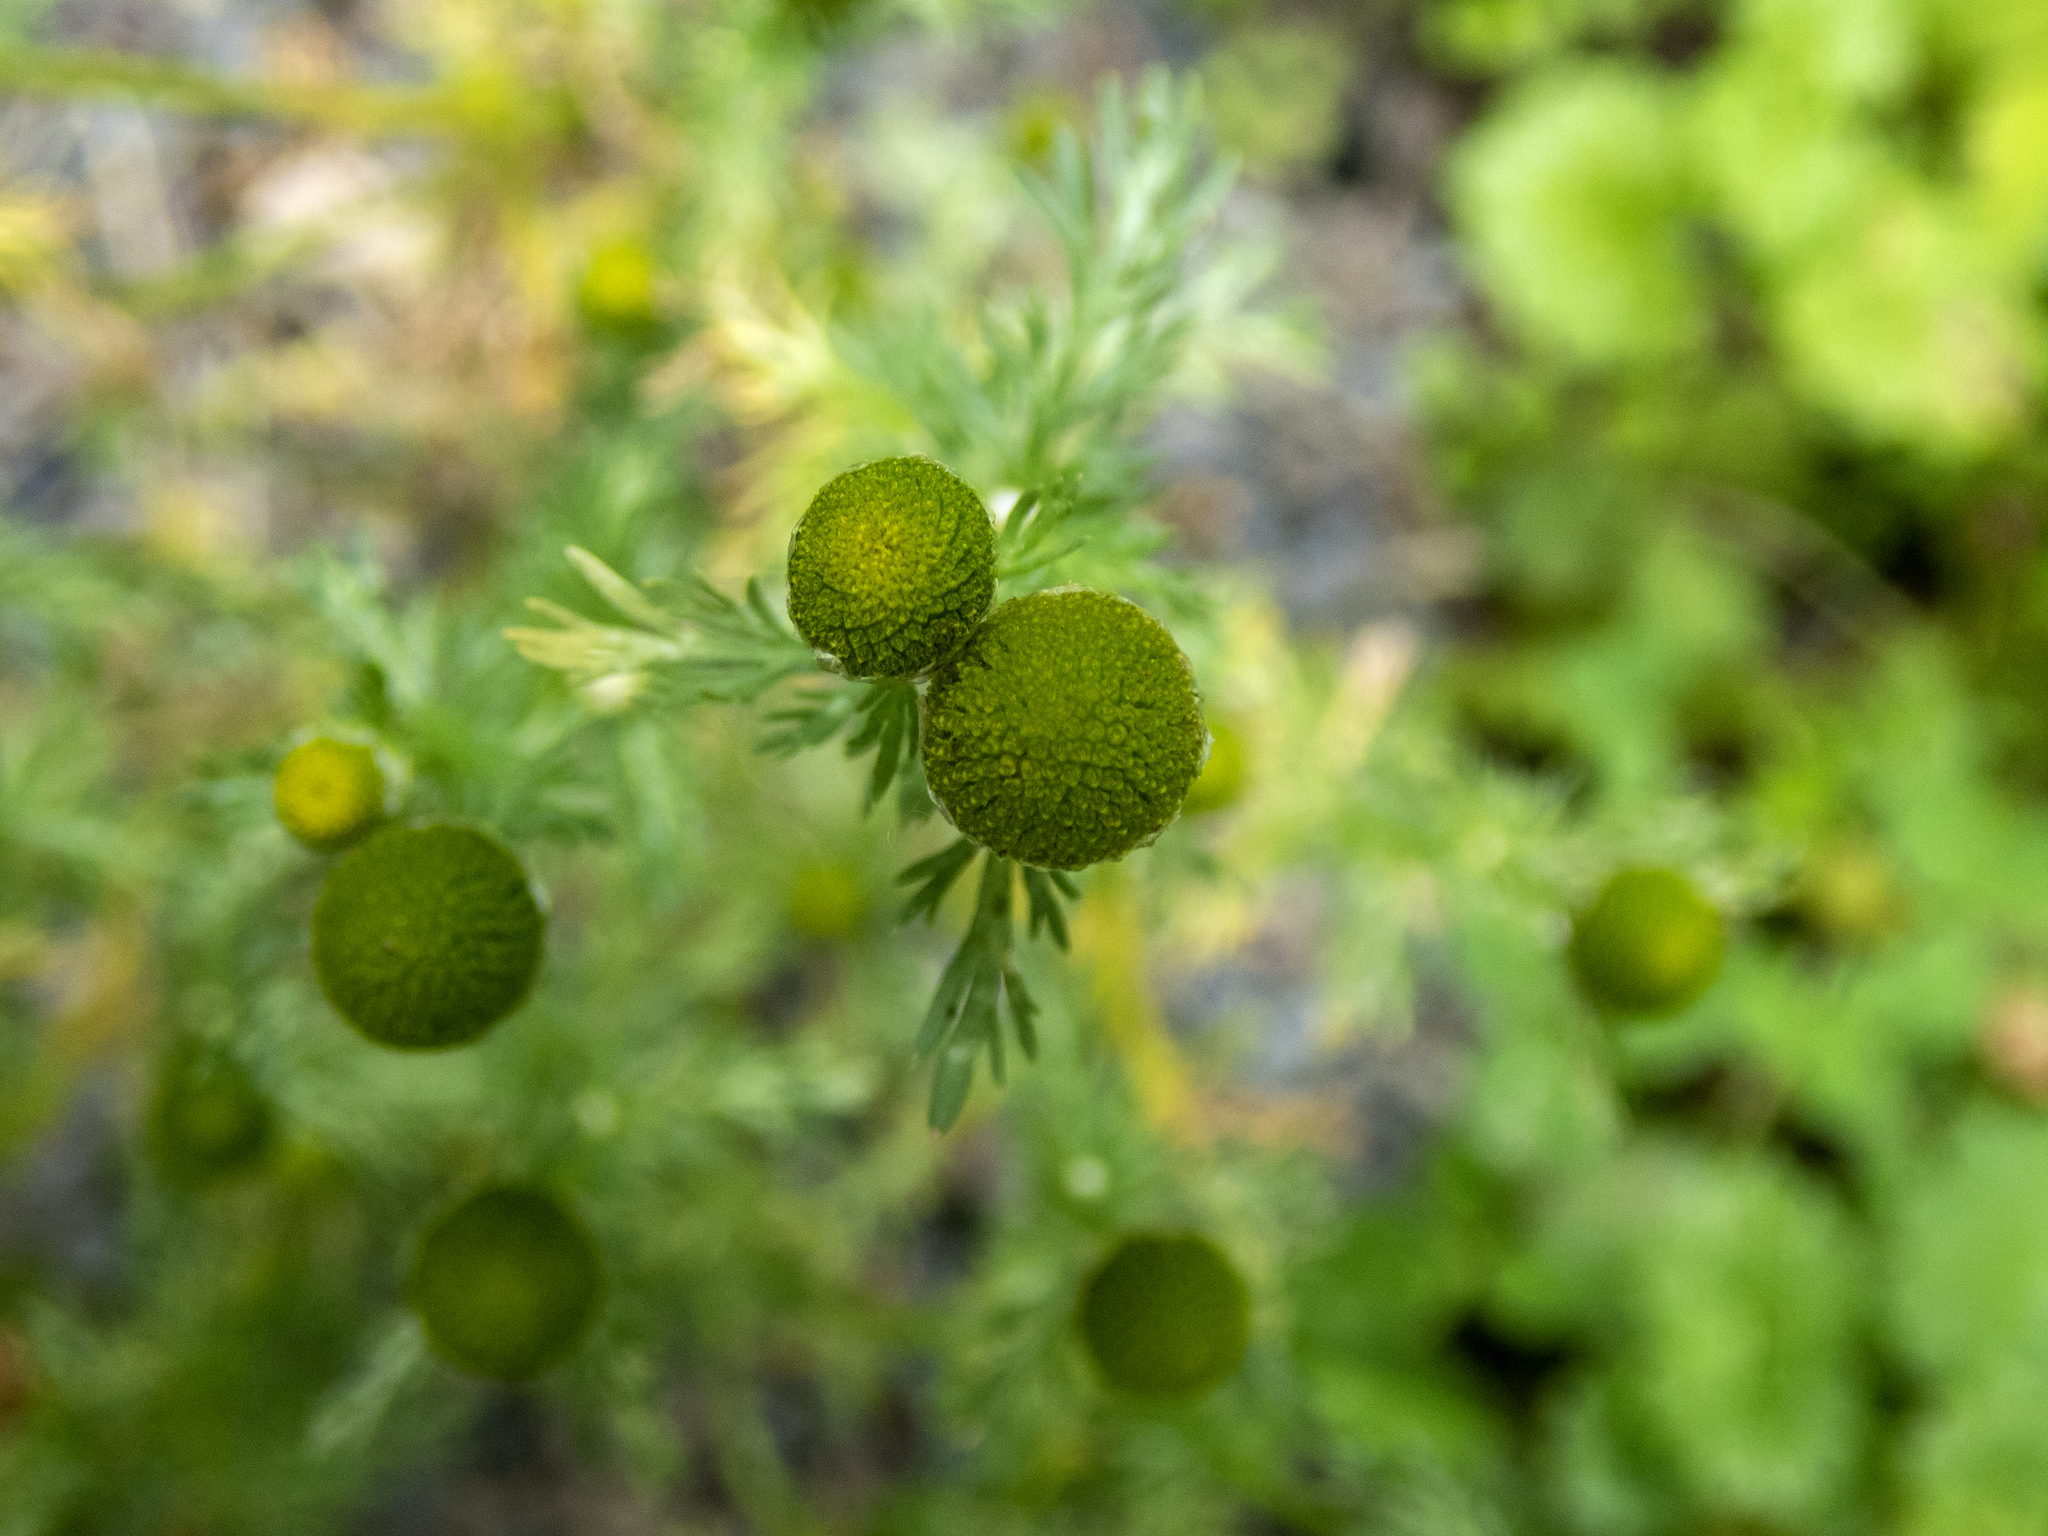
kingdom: Plantae
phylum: Tracheophyta
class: Magnoliopsida
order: Asterales
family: Asteraceae
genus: Matricaria
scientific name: Matricaria discoidea
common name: Disc mayweed
